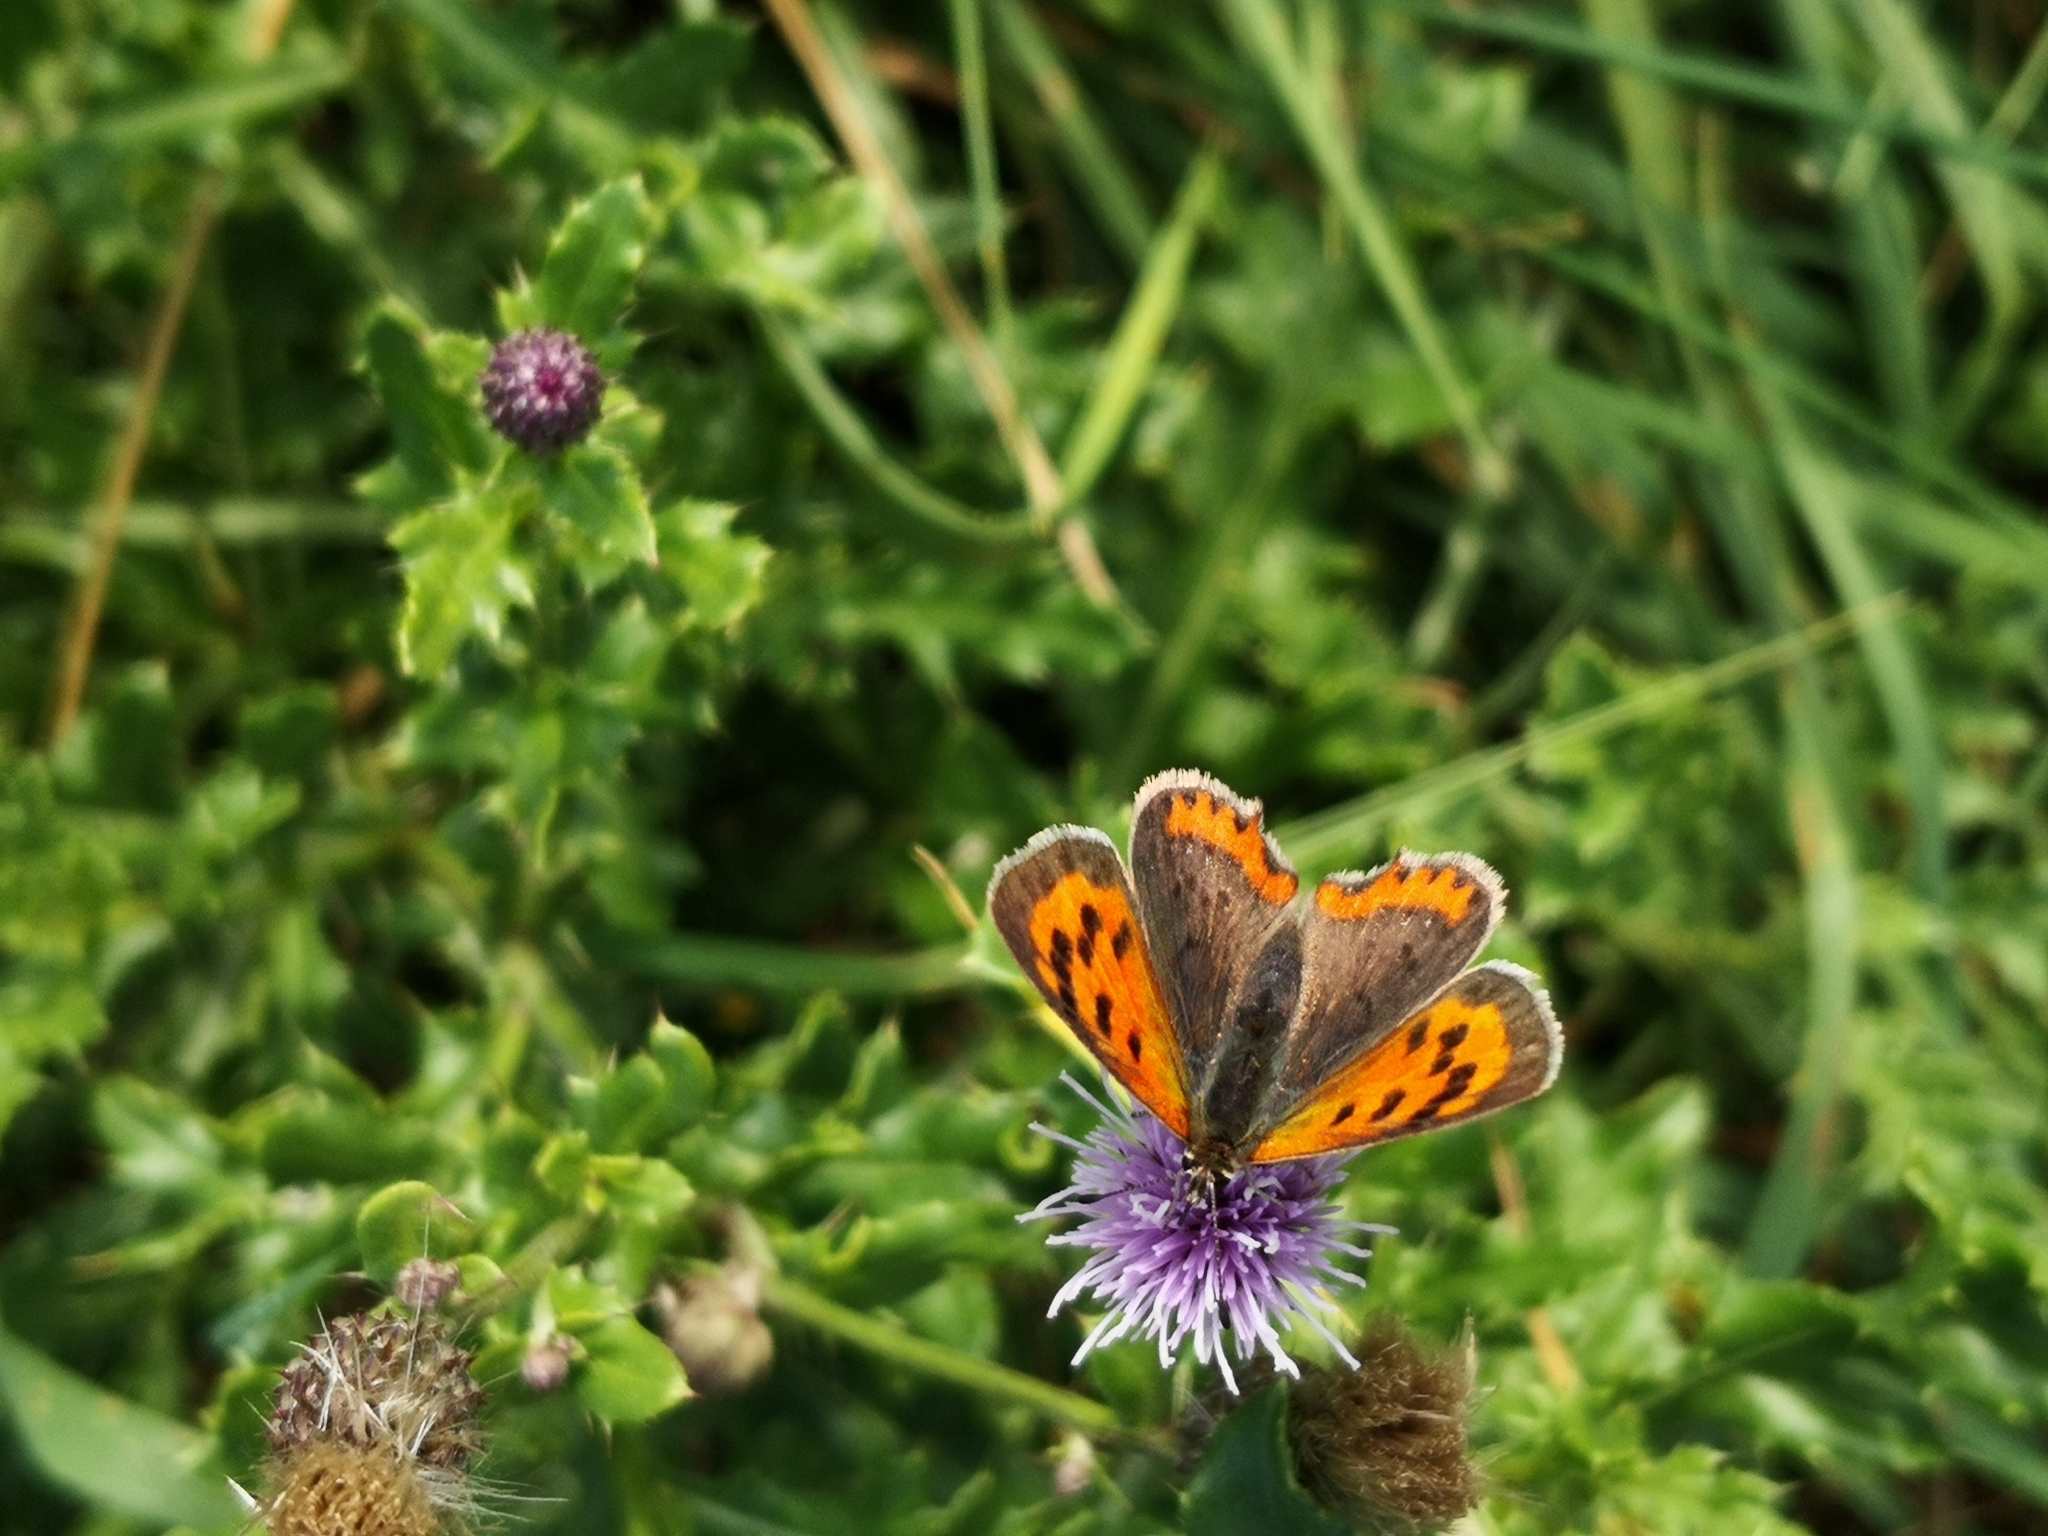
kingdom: Animalia
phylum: Arthropoda
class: Insecta
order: Lepidoptera
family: Lycaenidae
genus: Lycaena
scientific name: Lycaena phlaeas
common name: Small copper
